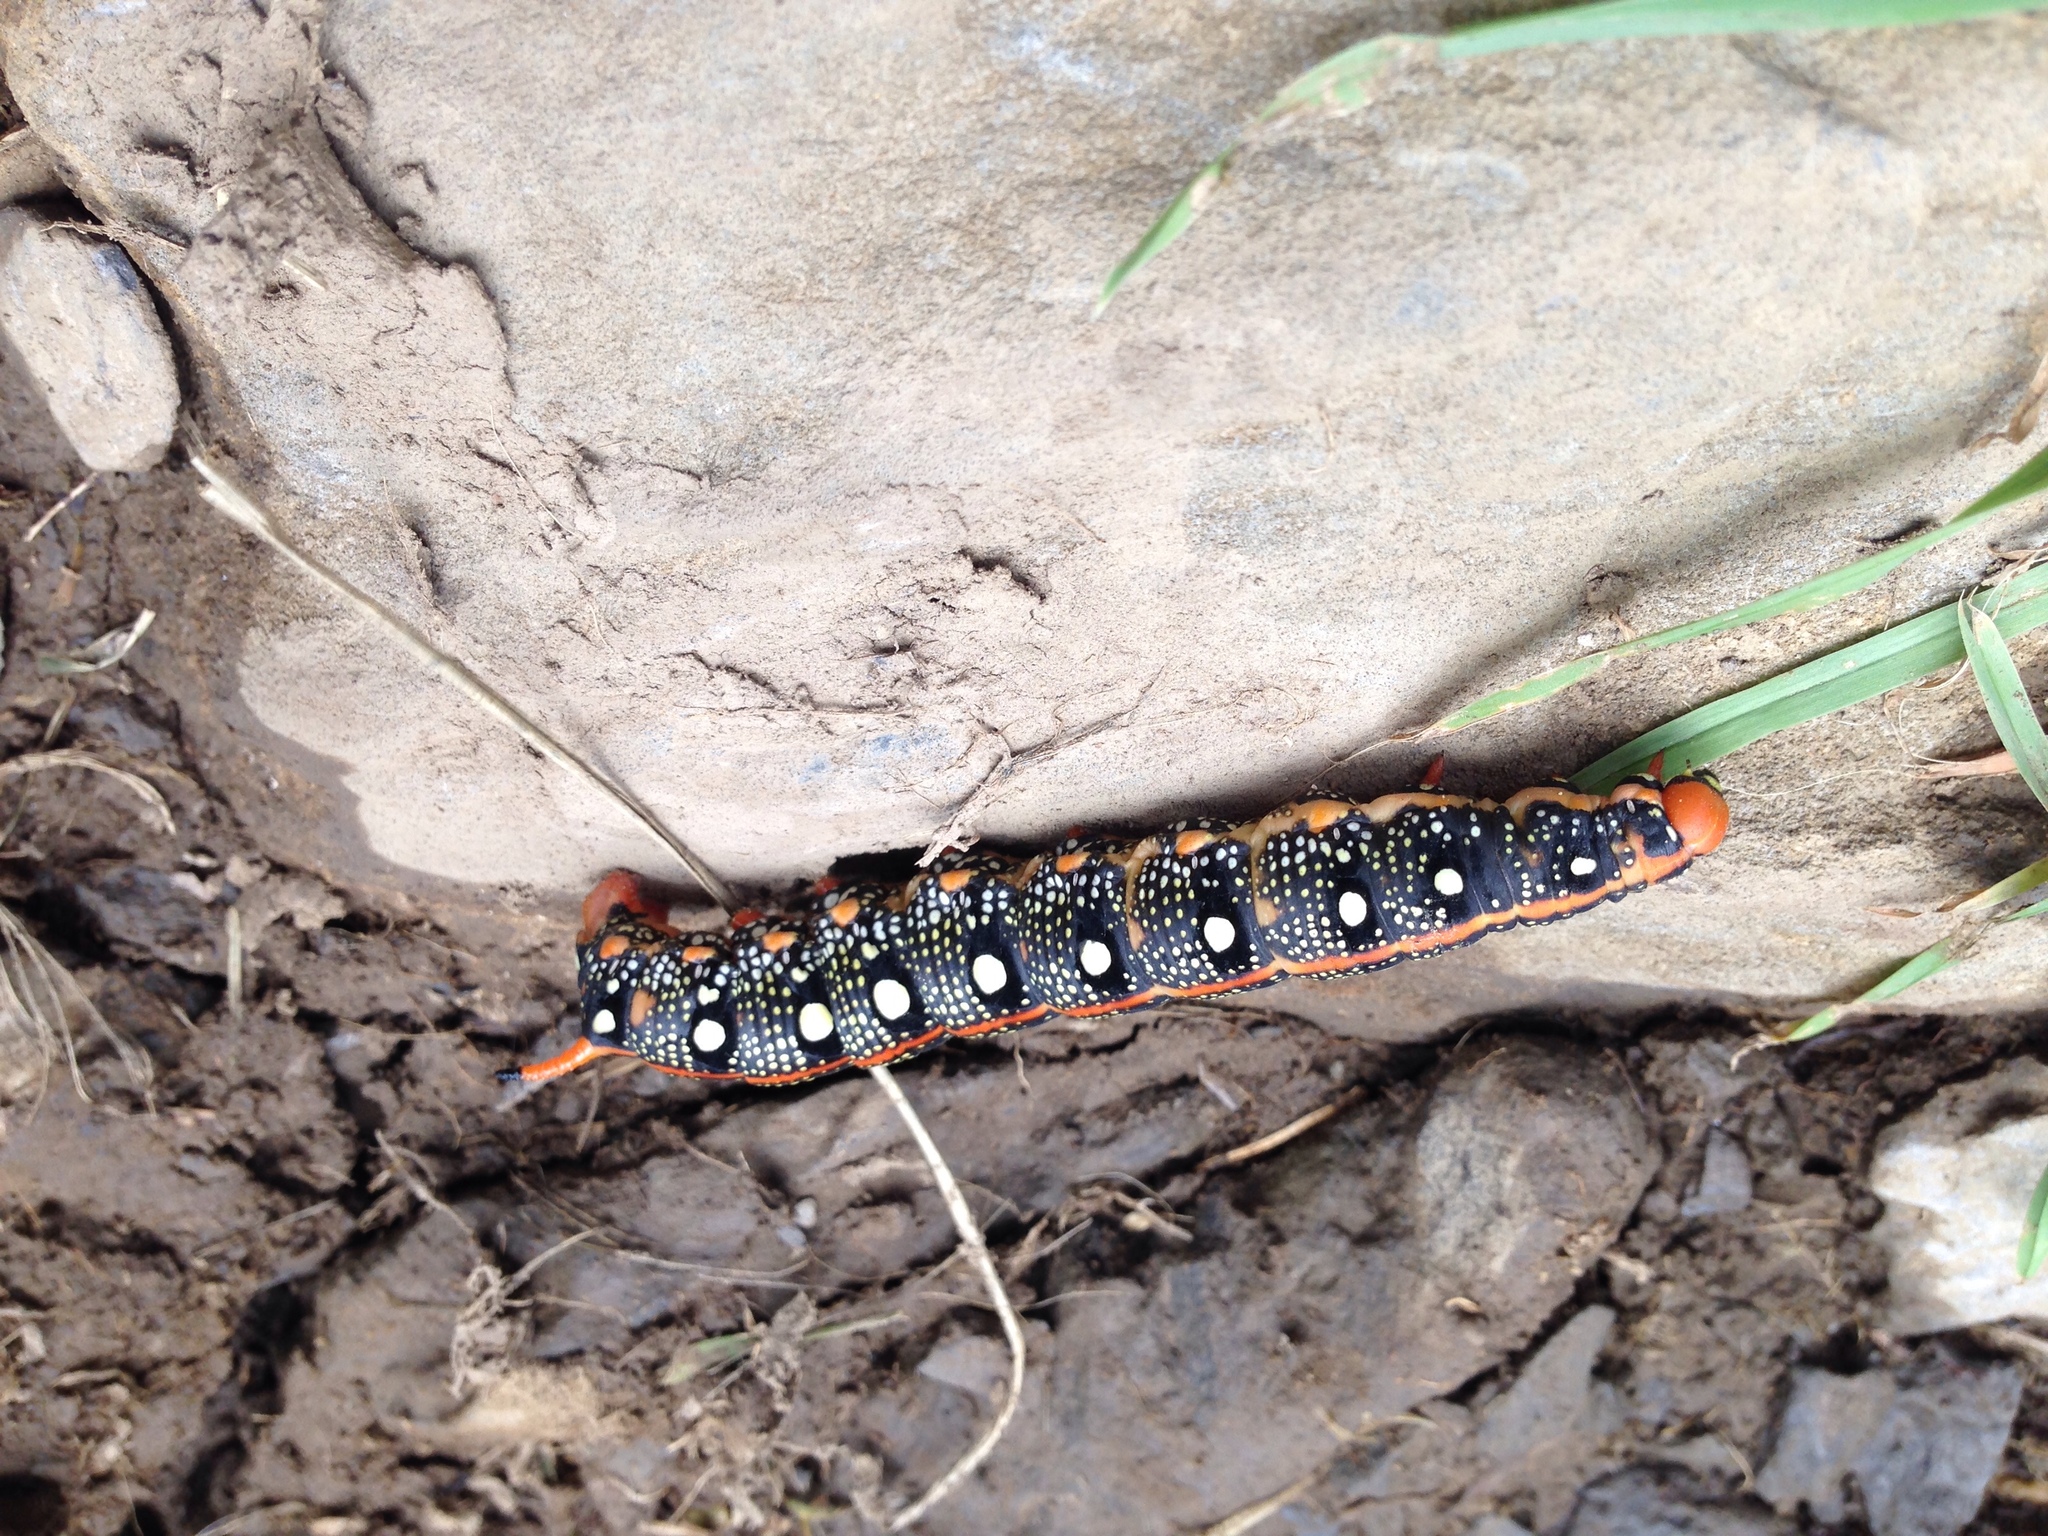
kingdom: Animalia
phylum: Arthropoda
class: Insecta
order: Lepidoptera
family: Sphingidae
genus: Hyles
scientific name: Hyles euphorbiae
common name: Spurge hawk-moth
